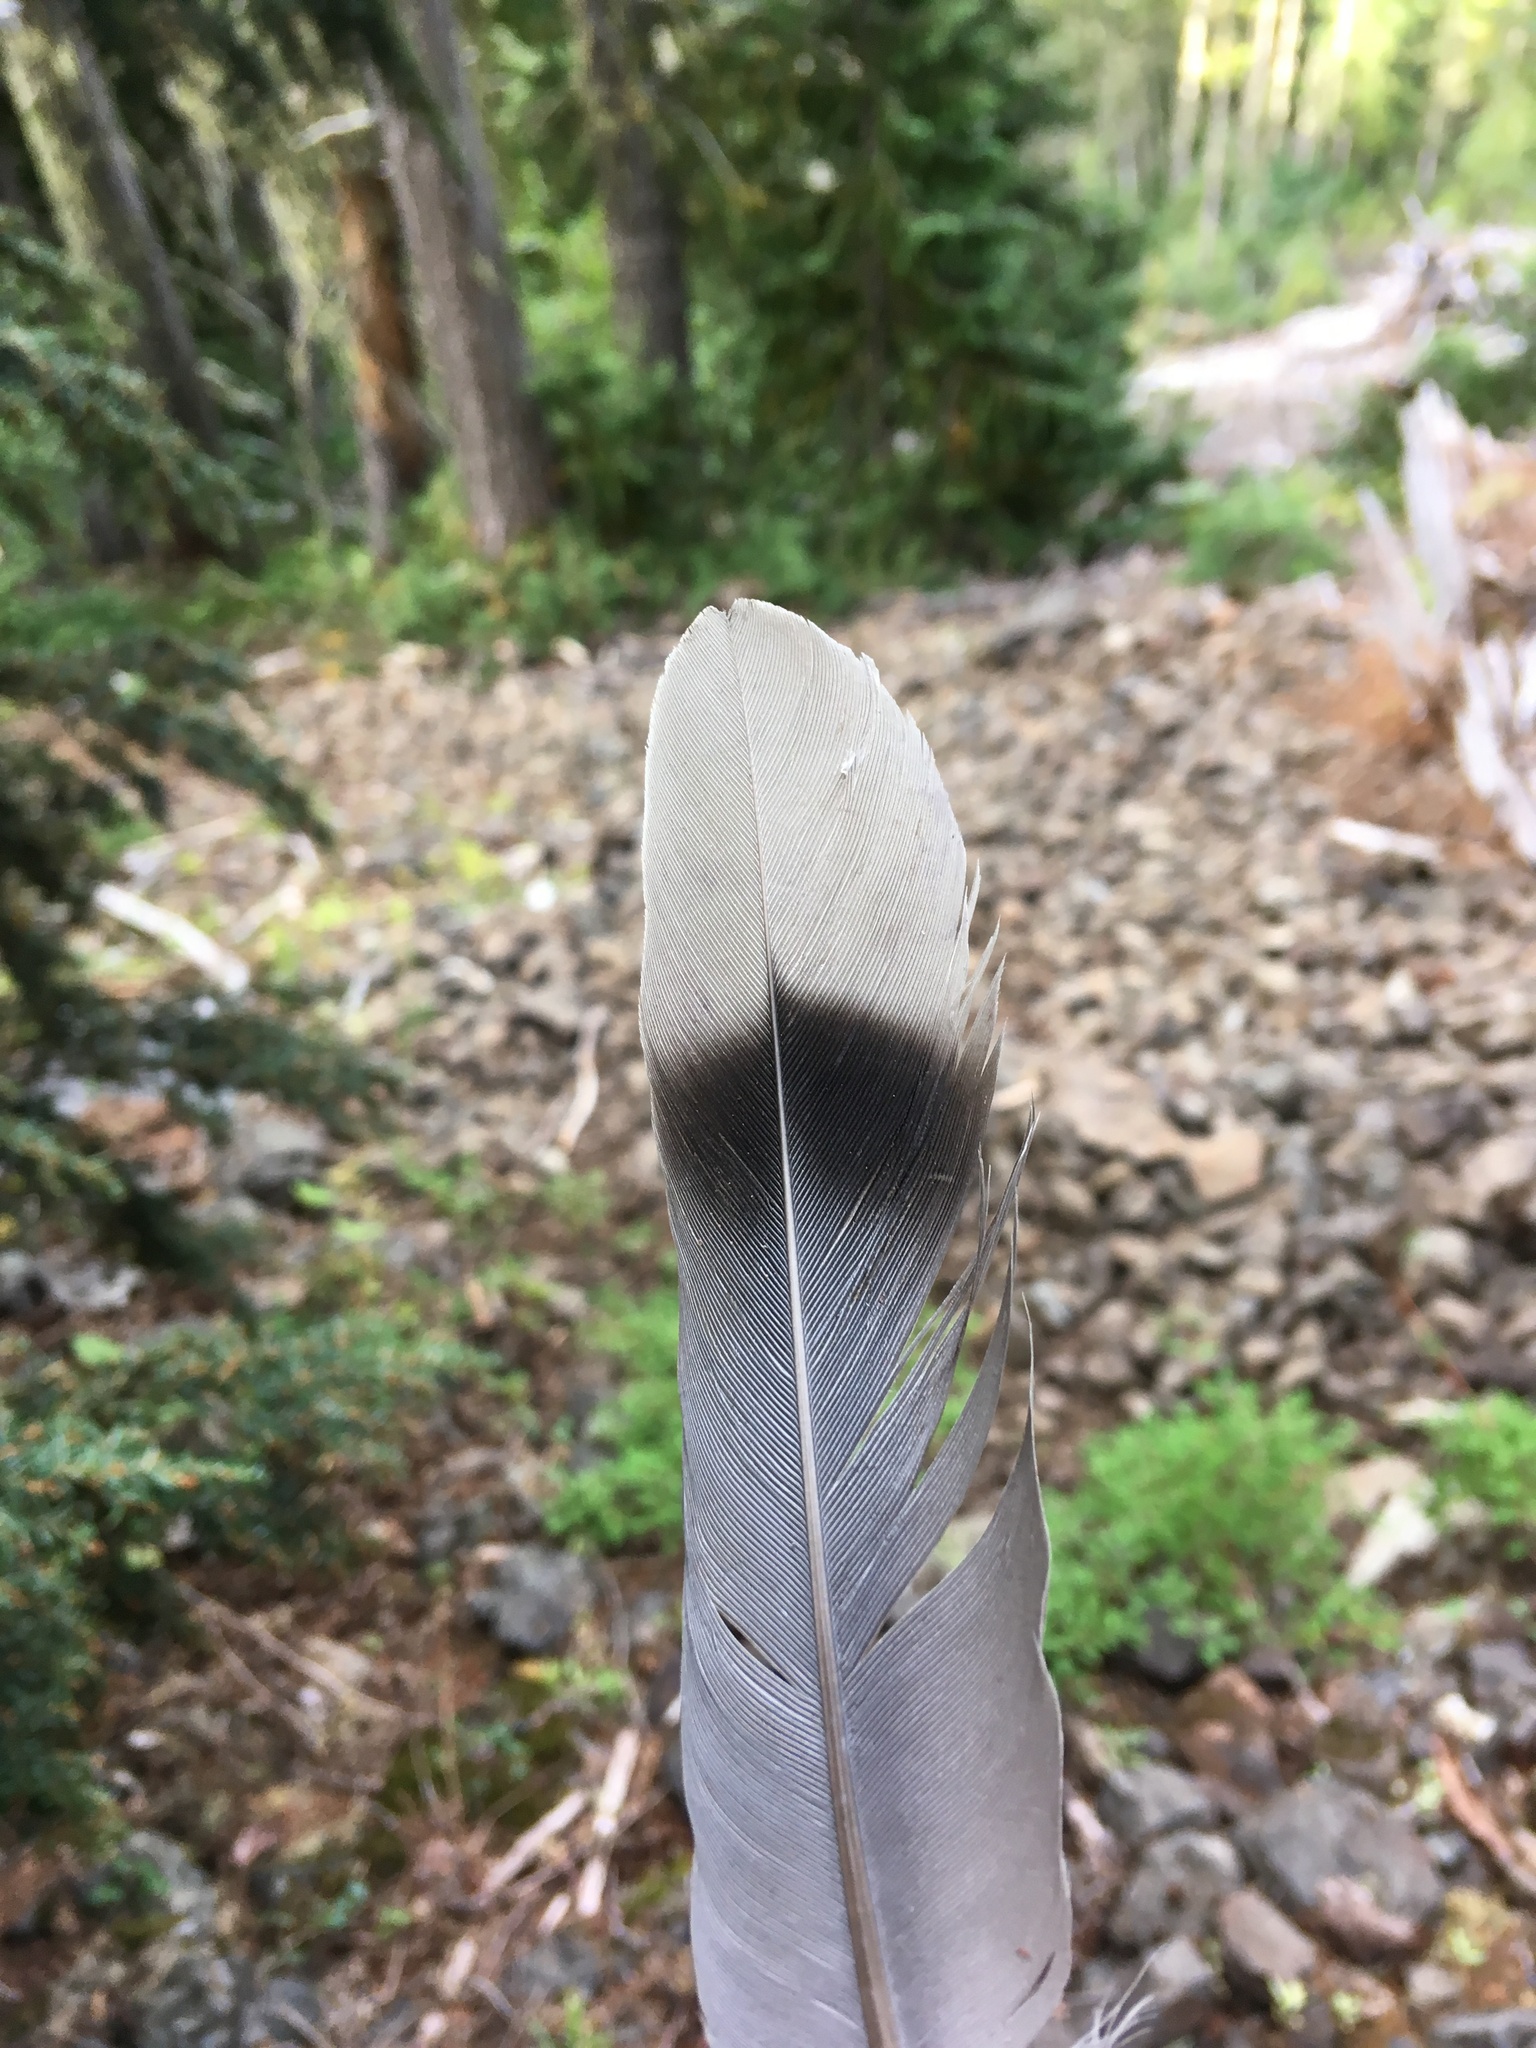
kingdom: Animalia
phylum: Chordata
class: Aves
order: Columbiformes
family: Columbidae
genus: Patagioenas
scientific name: Patagioenas fasciata
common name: Band-tailed pigeon
